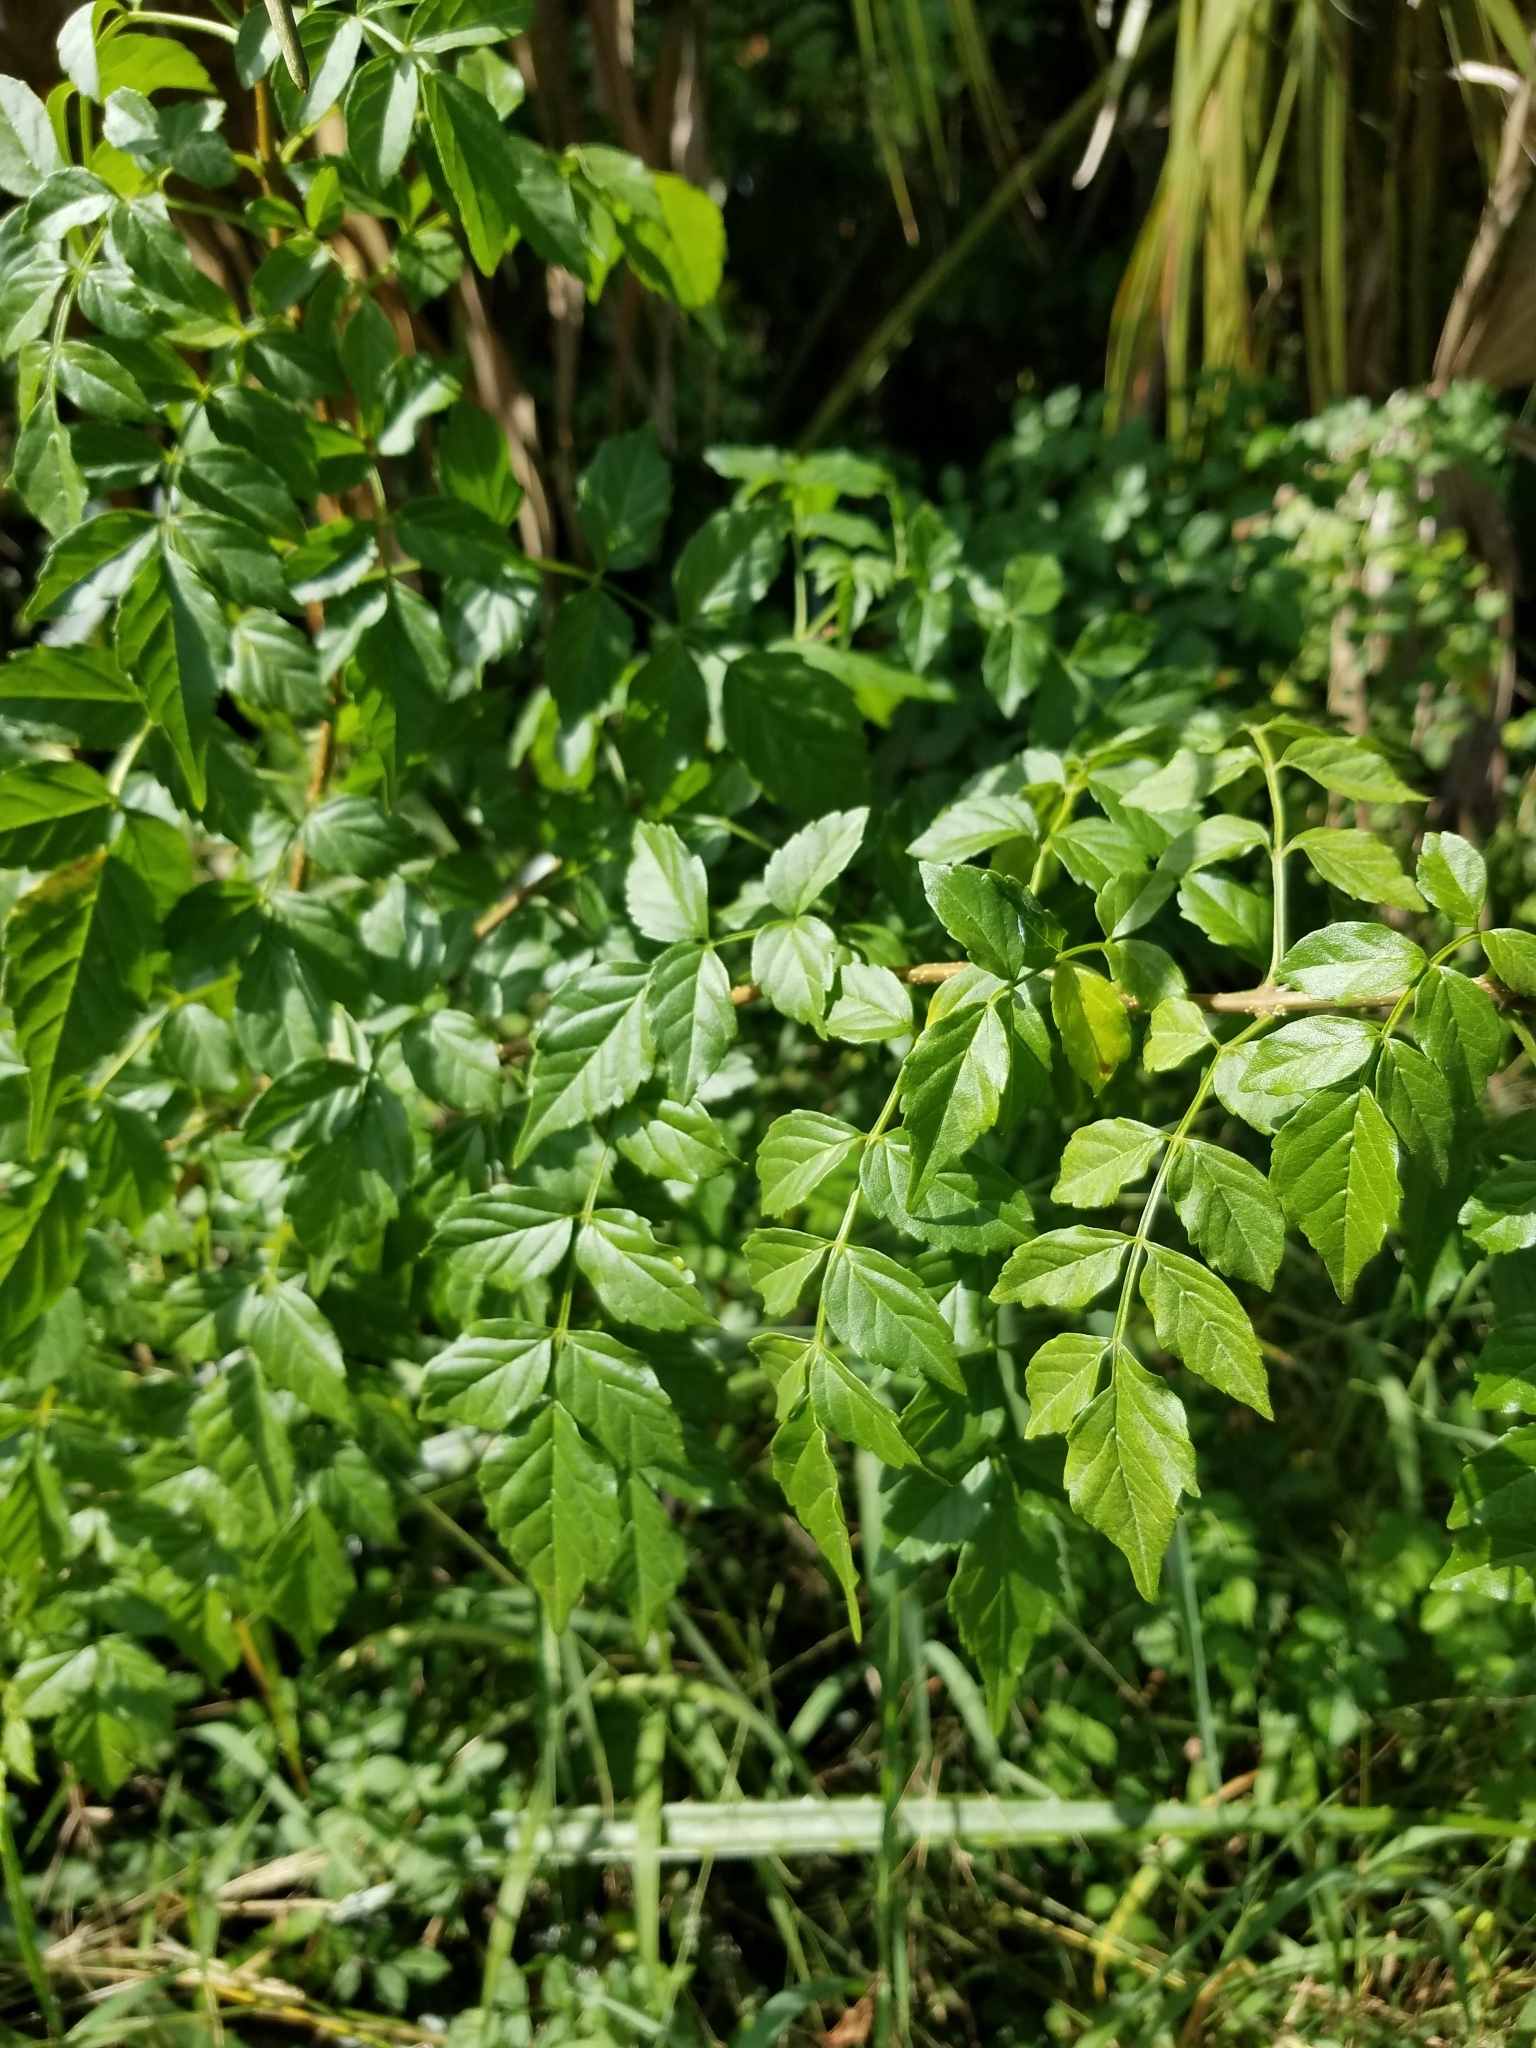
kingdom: Plantae
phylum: Tracheophyta
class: Magnoliopsida
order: Lamiales
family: Bignoniaceae
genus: Tecomaria
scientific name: Tecomaria capensis
